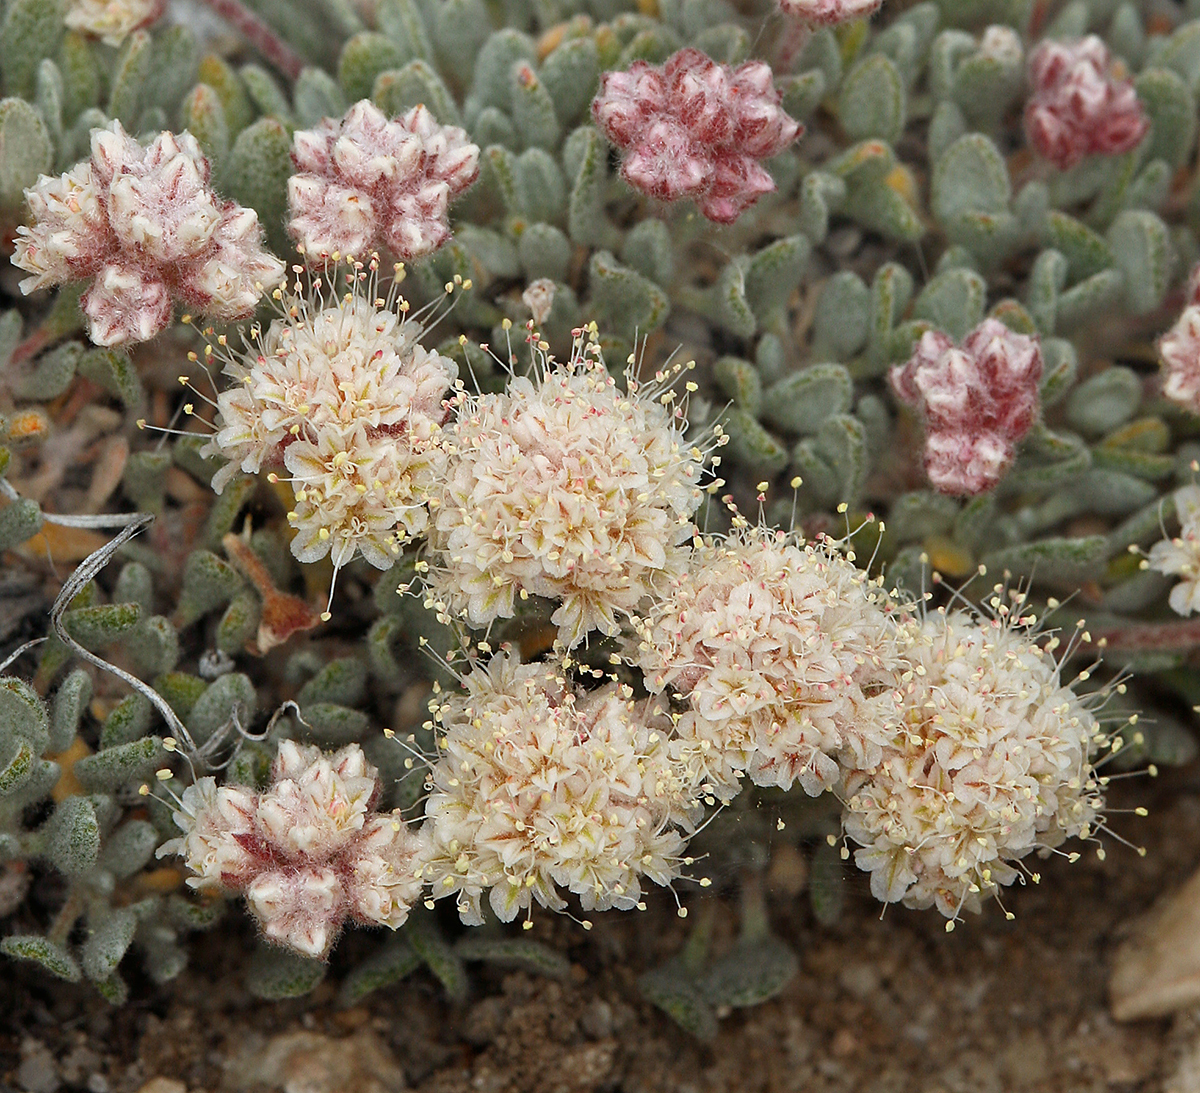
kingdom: Plantae
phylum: Tracheophyta
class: Magnoliopsida
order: Caryophyllales
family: Polygonaceae
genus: Eriogonum
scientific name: Eriogonum shockleyi
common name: Shockley's wild buckwheat
